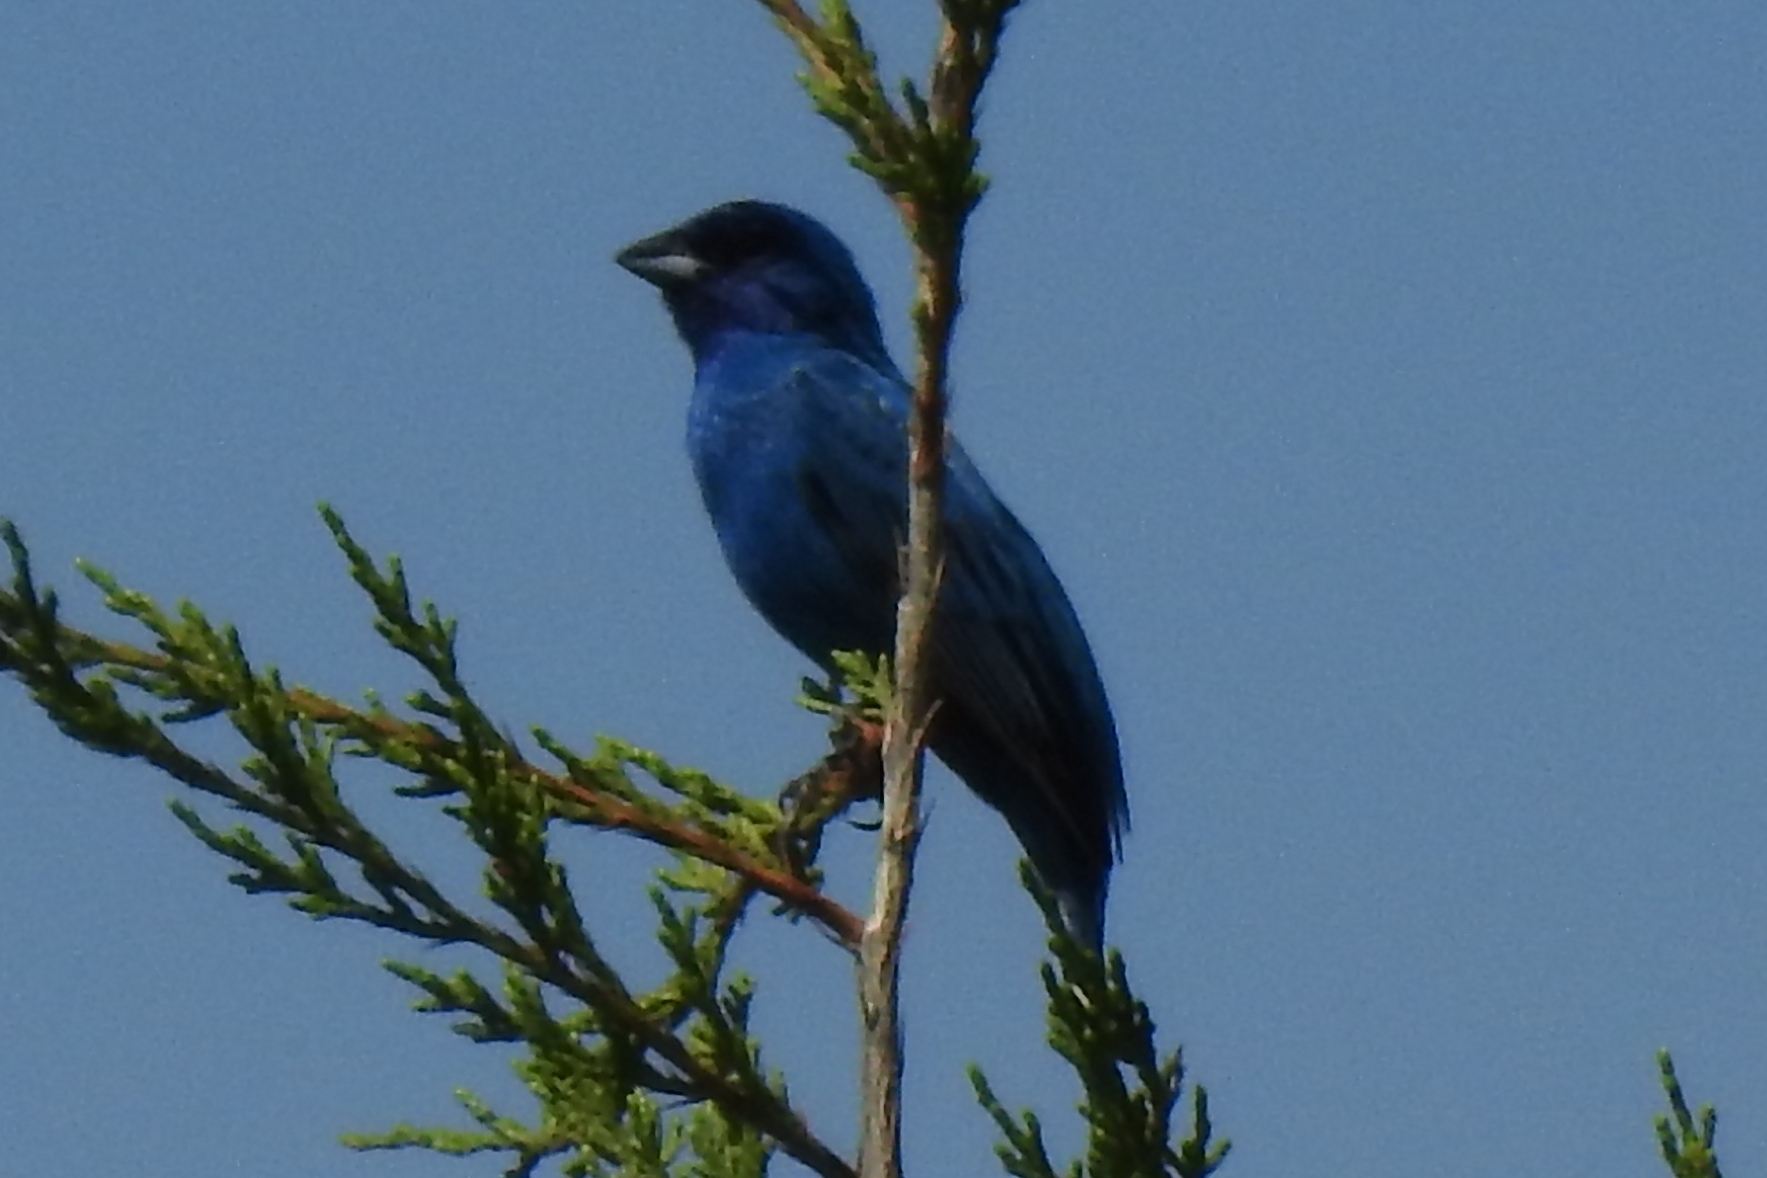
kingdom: Animalia
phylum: Chordata
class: Aves
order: Passeriformes
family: Cardinalidae
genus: Passerina
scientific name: Passerina cyanea
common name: Indigo bunting
